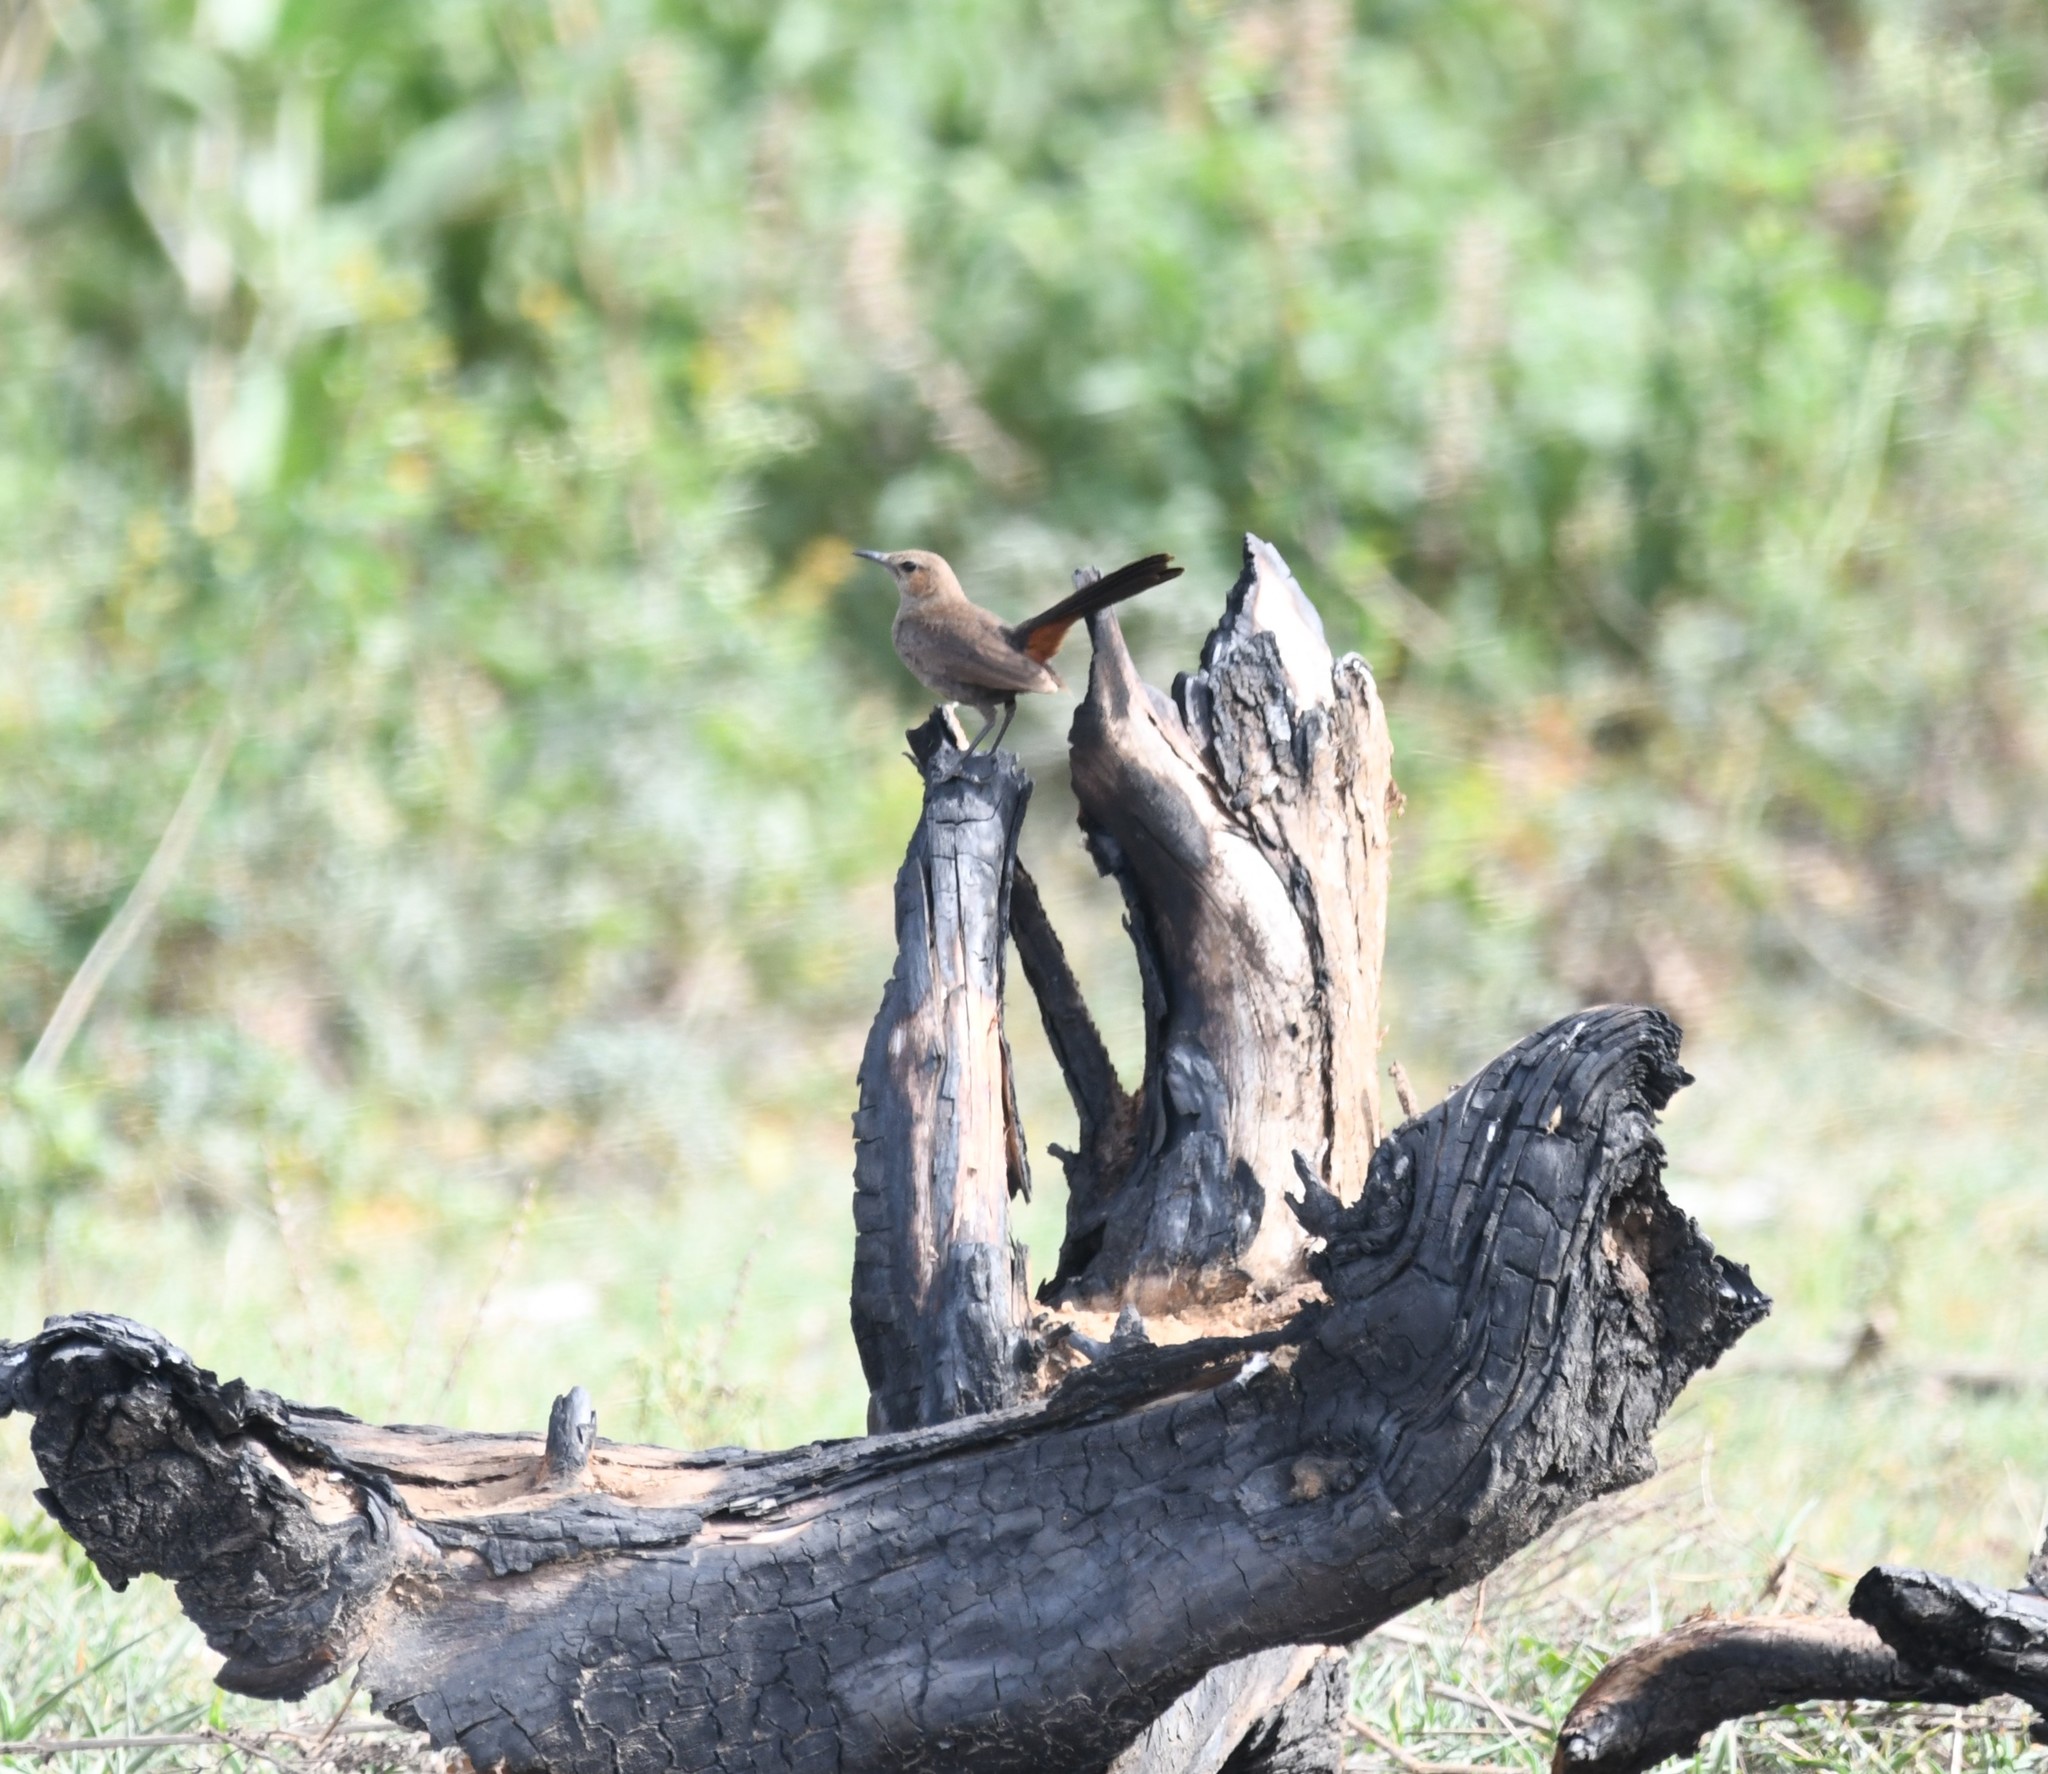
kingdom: Animalia
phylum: Chordata
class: Aves
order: Passeriformes
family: Muscicapidae
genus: Saxicoloides
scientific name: Saxicoloides fulicatus
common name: Indian robin
